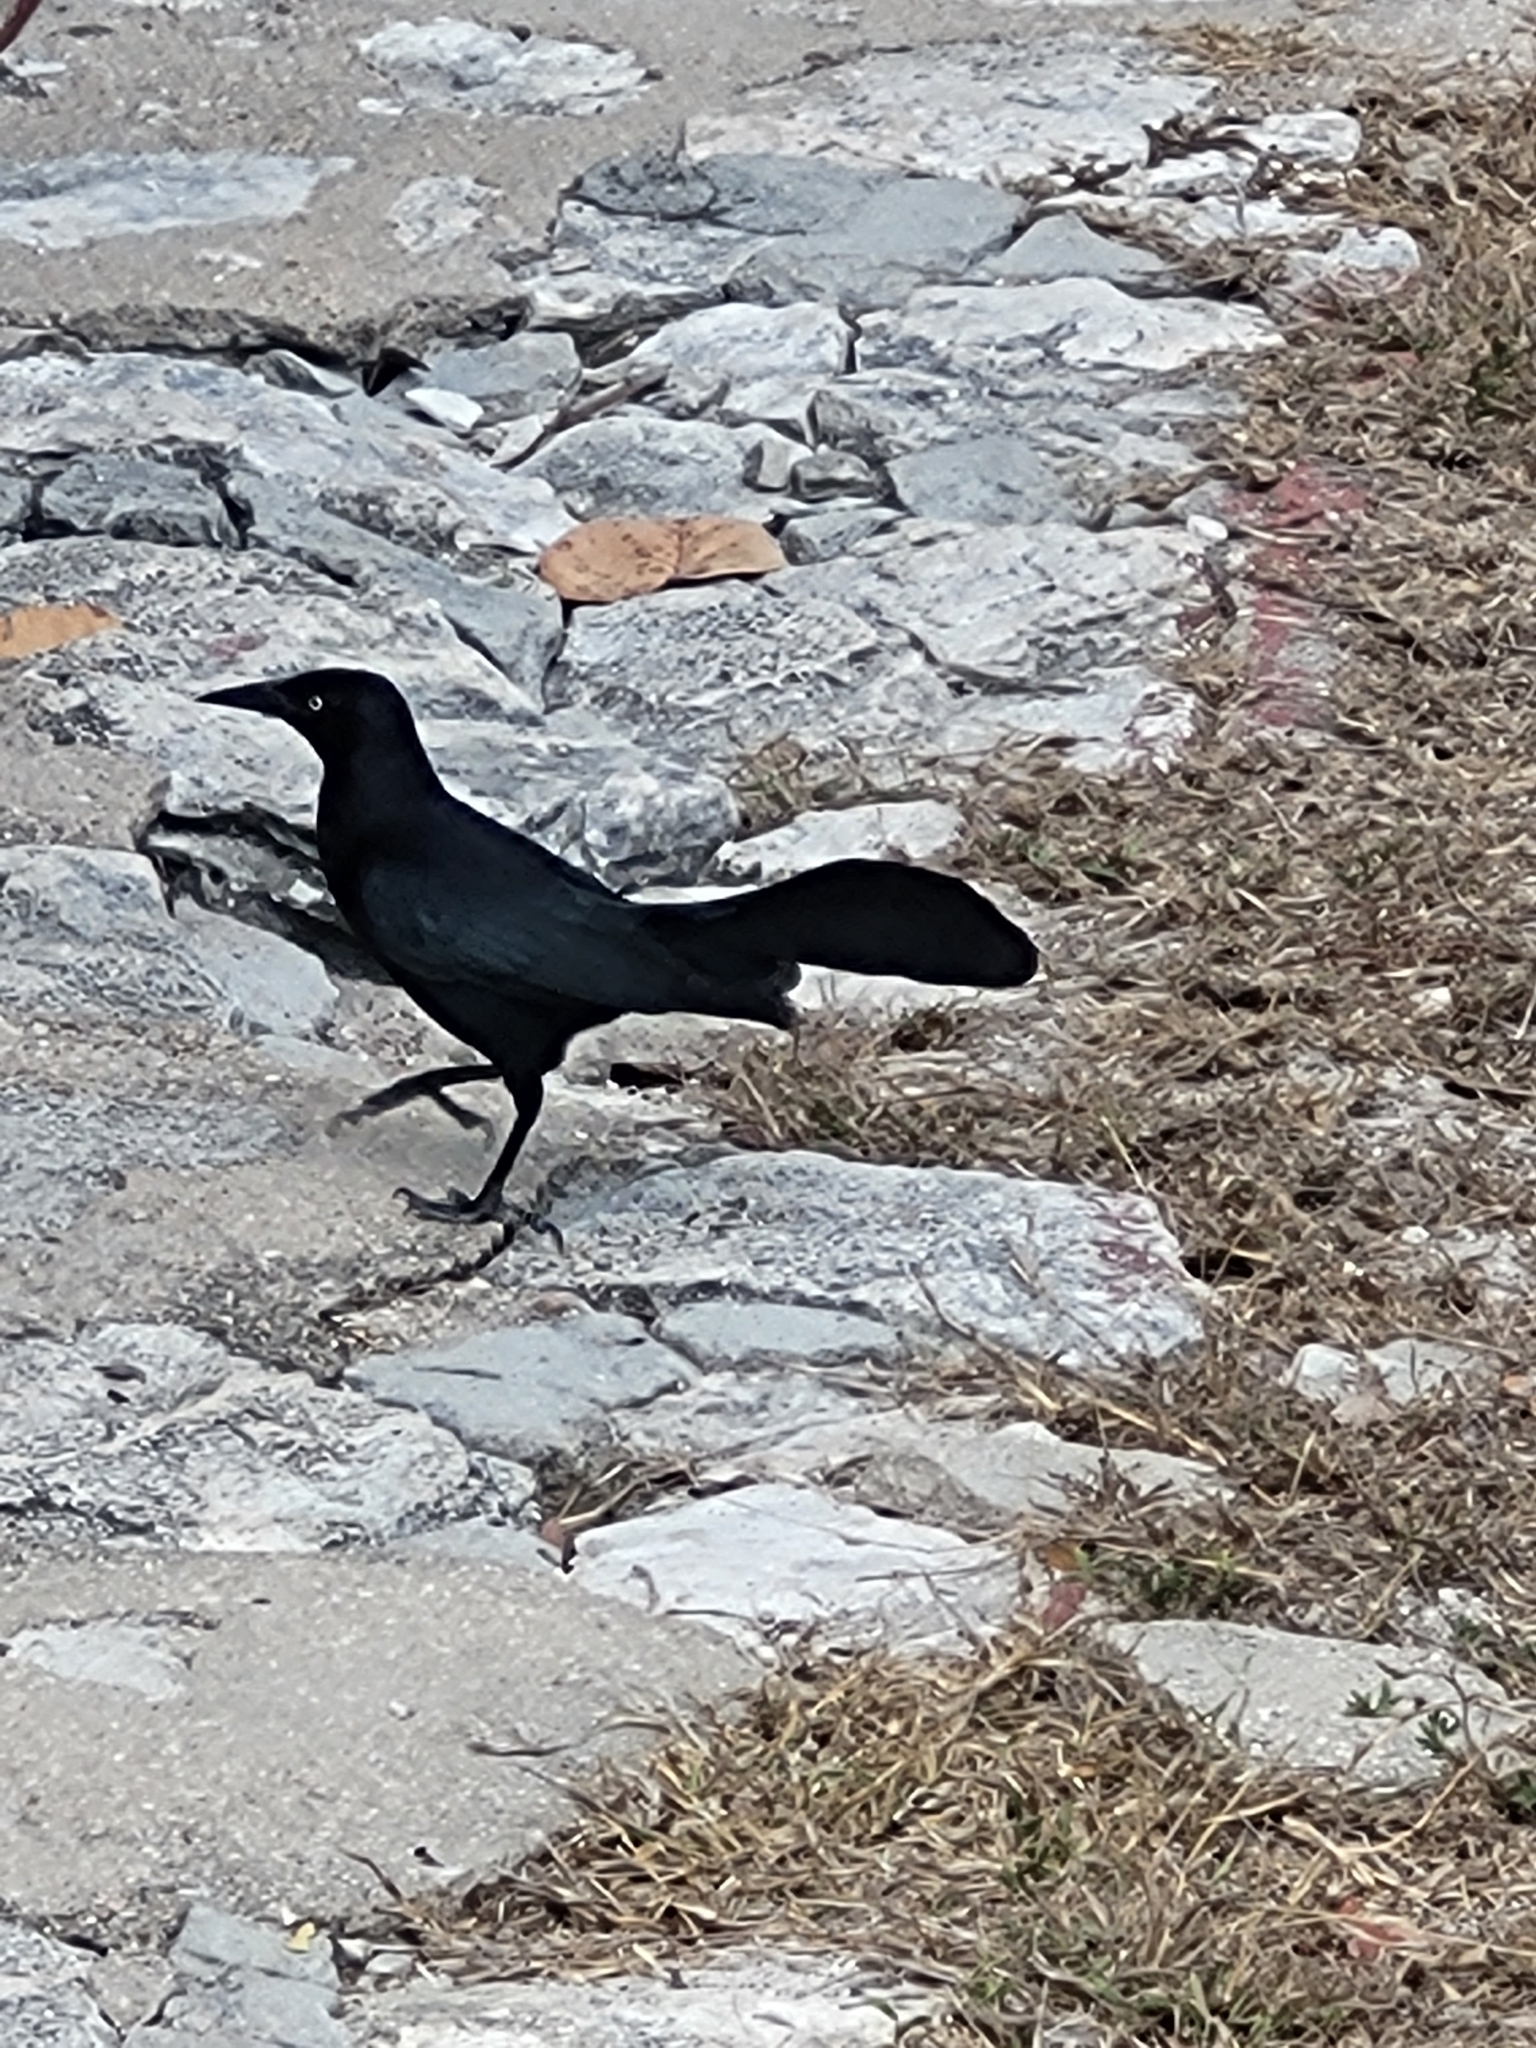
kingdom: Animalia
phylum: Chordata
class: Aves
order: Passeriformes
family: Icteridae
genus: Quiscalus
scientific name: Quiscalus niger
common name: Greater antillean grackle
